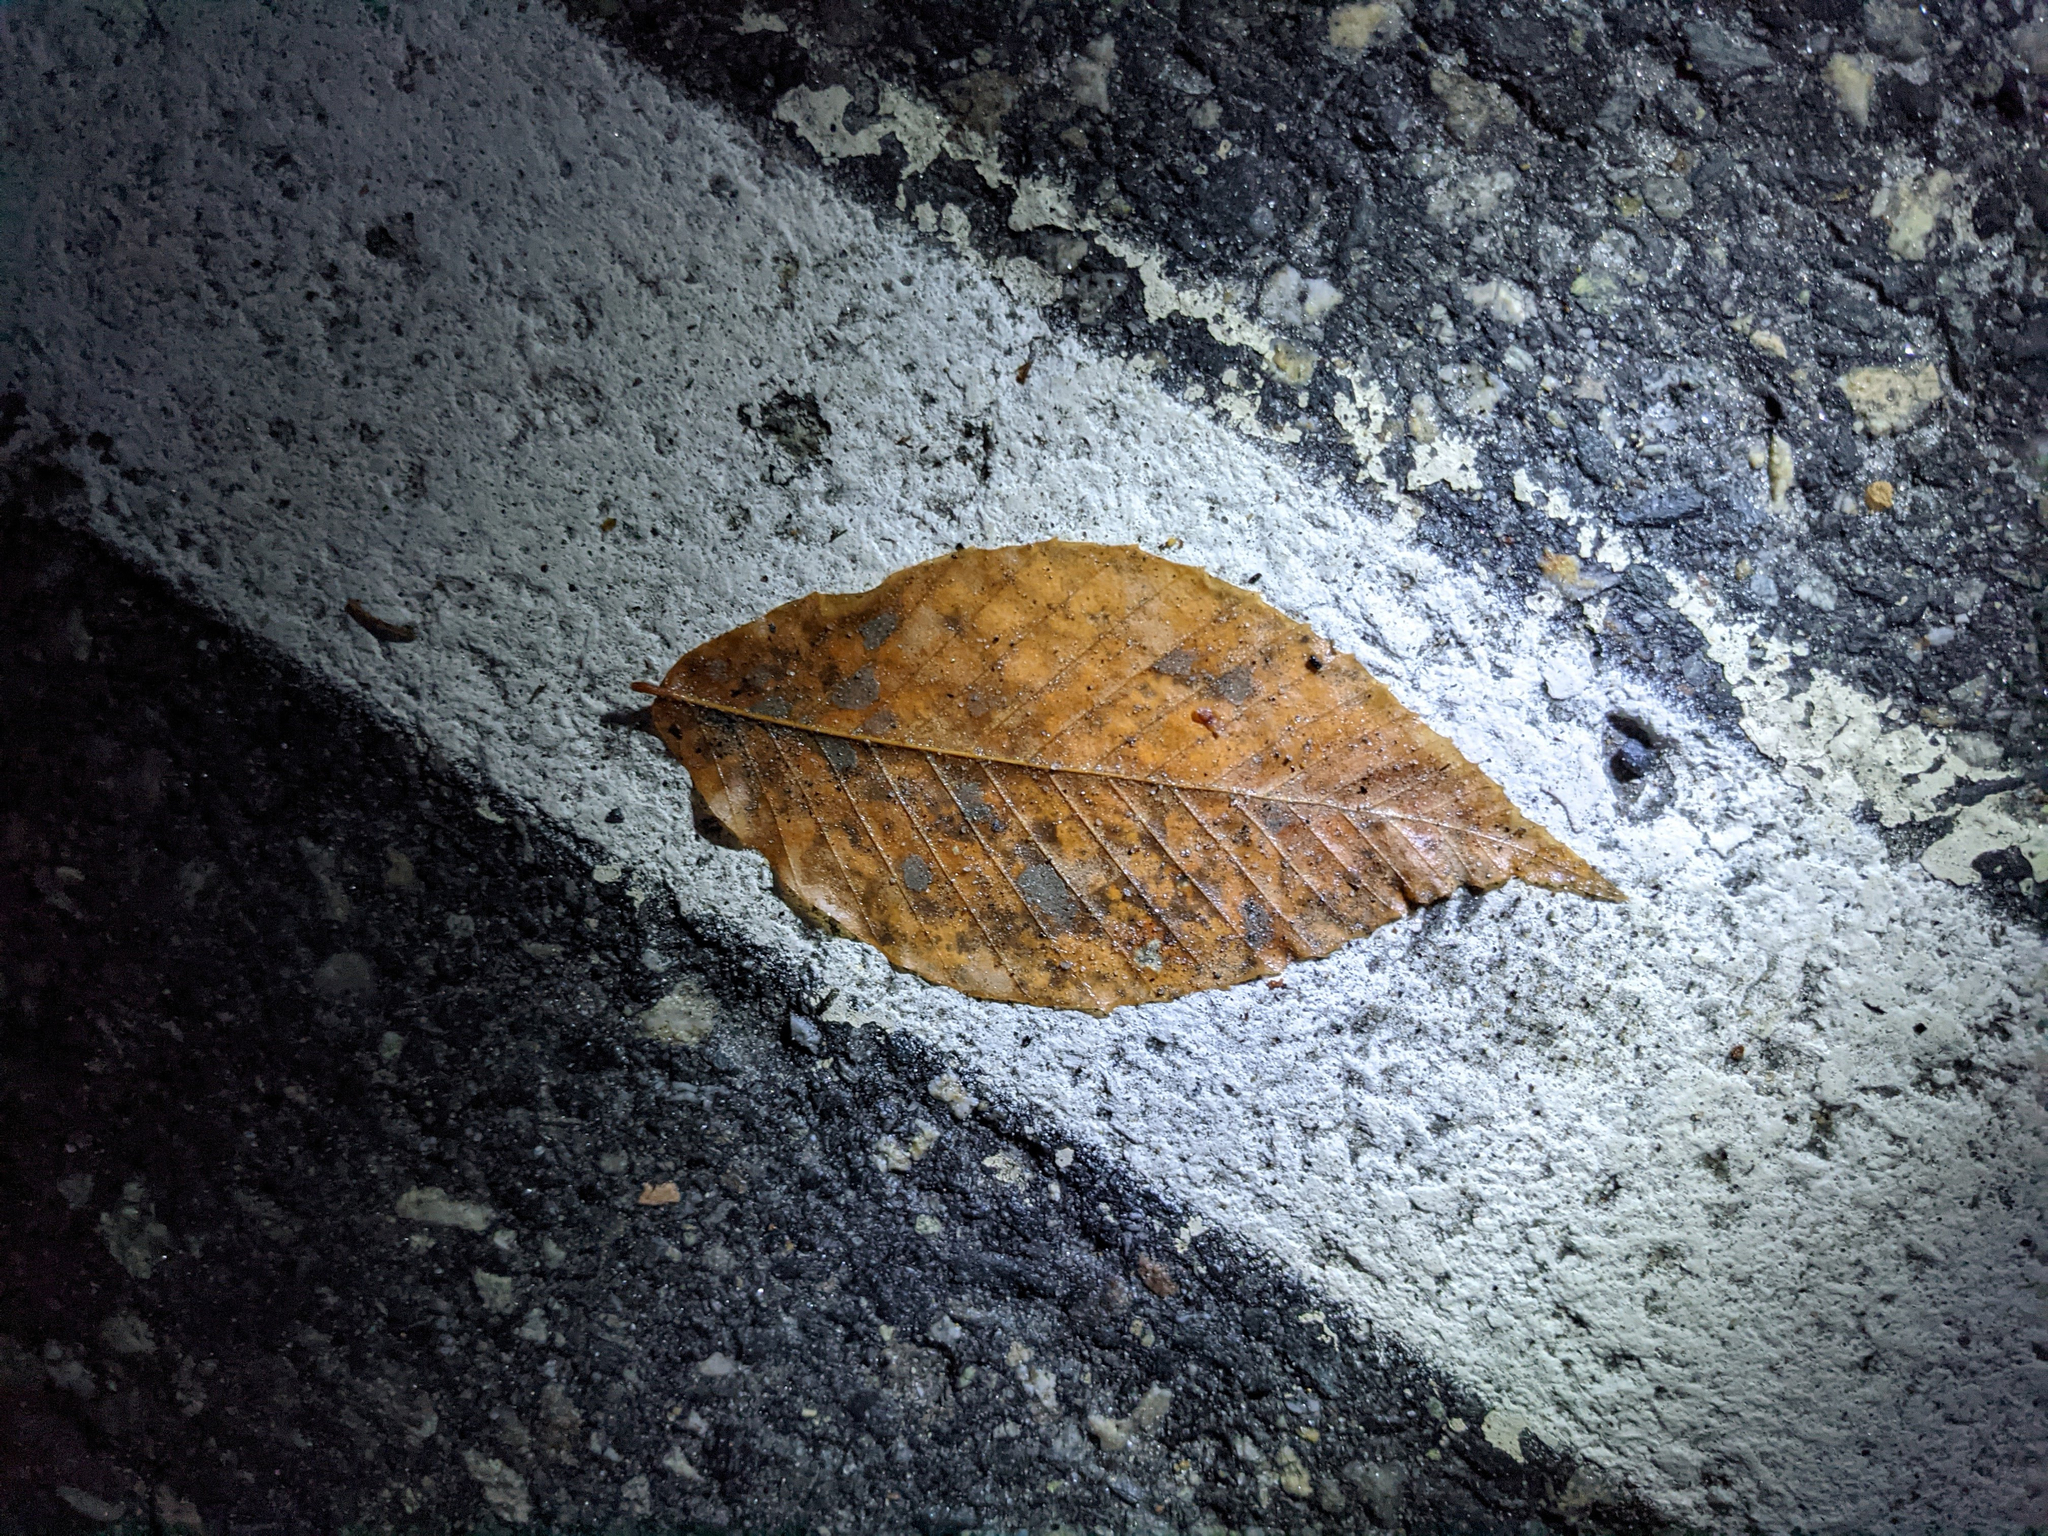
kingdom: Plantae
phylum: Tracheophyta
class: Magnoliopsida
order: Fagales
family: Fagaceae
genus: Fagus
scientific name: Fagus grandifolia
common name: American beech
